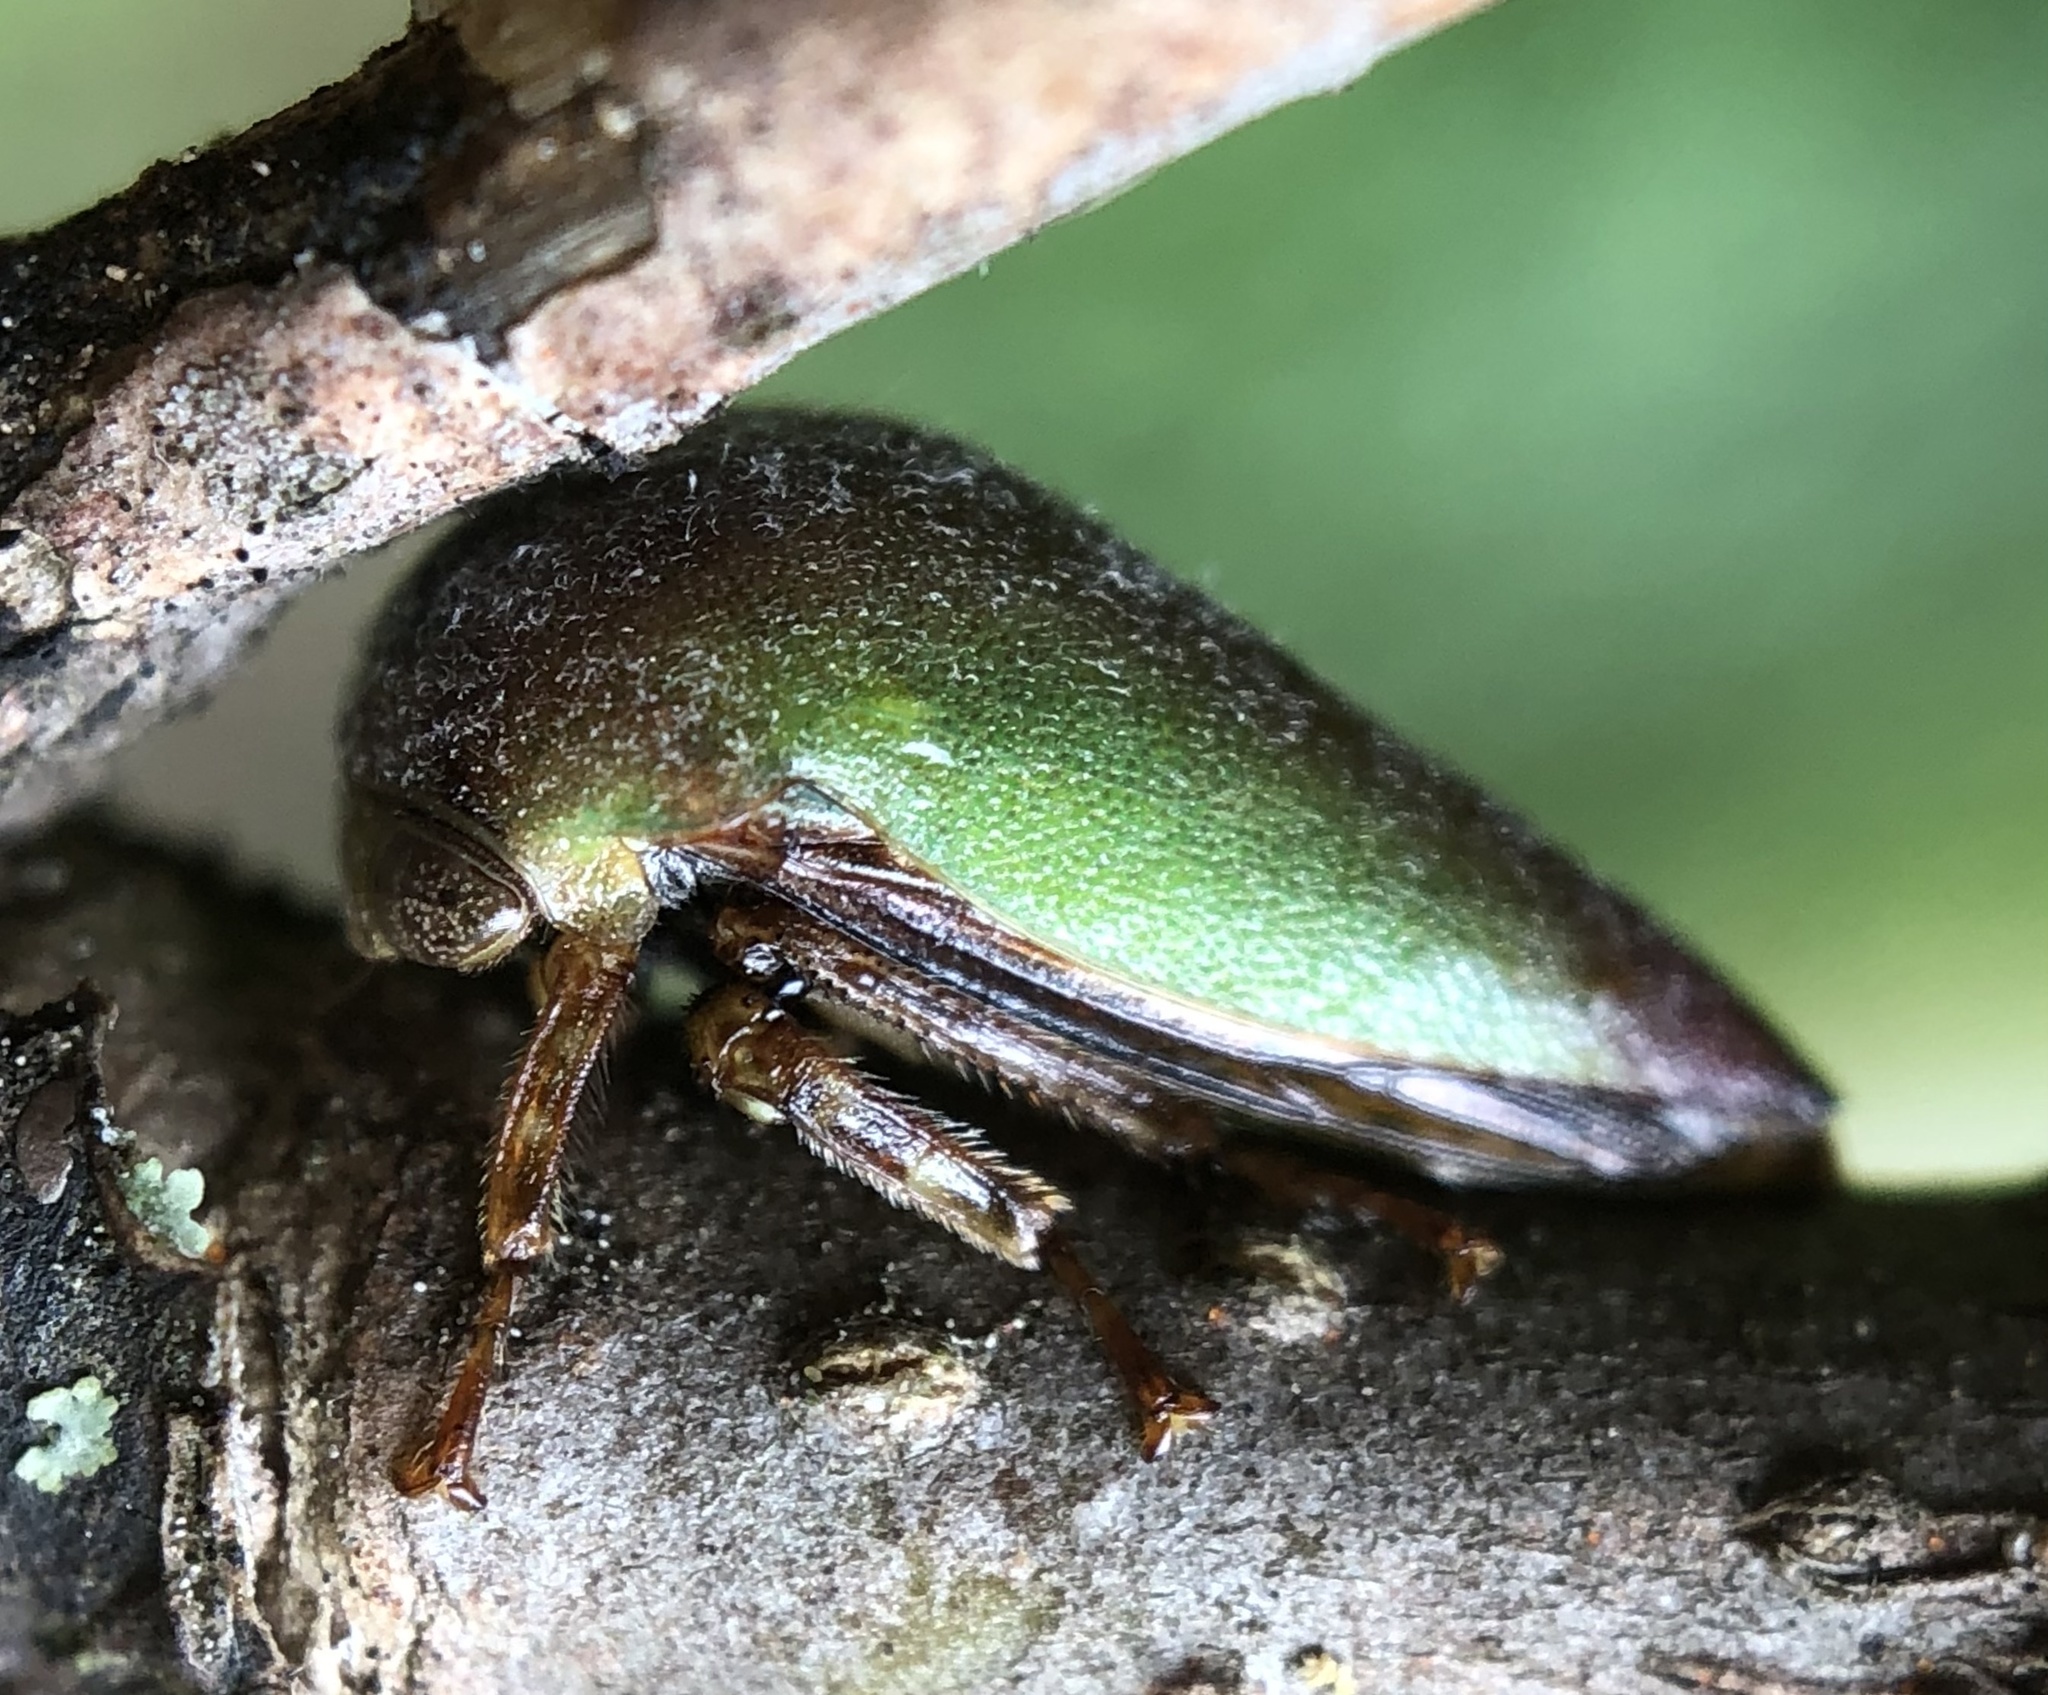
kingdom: Animalia
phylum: Arthropoda
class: Insecta
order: Hemiptera
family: Membracidae
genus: Hebetica
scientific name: Hebetica
